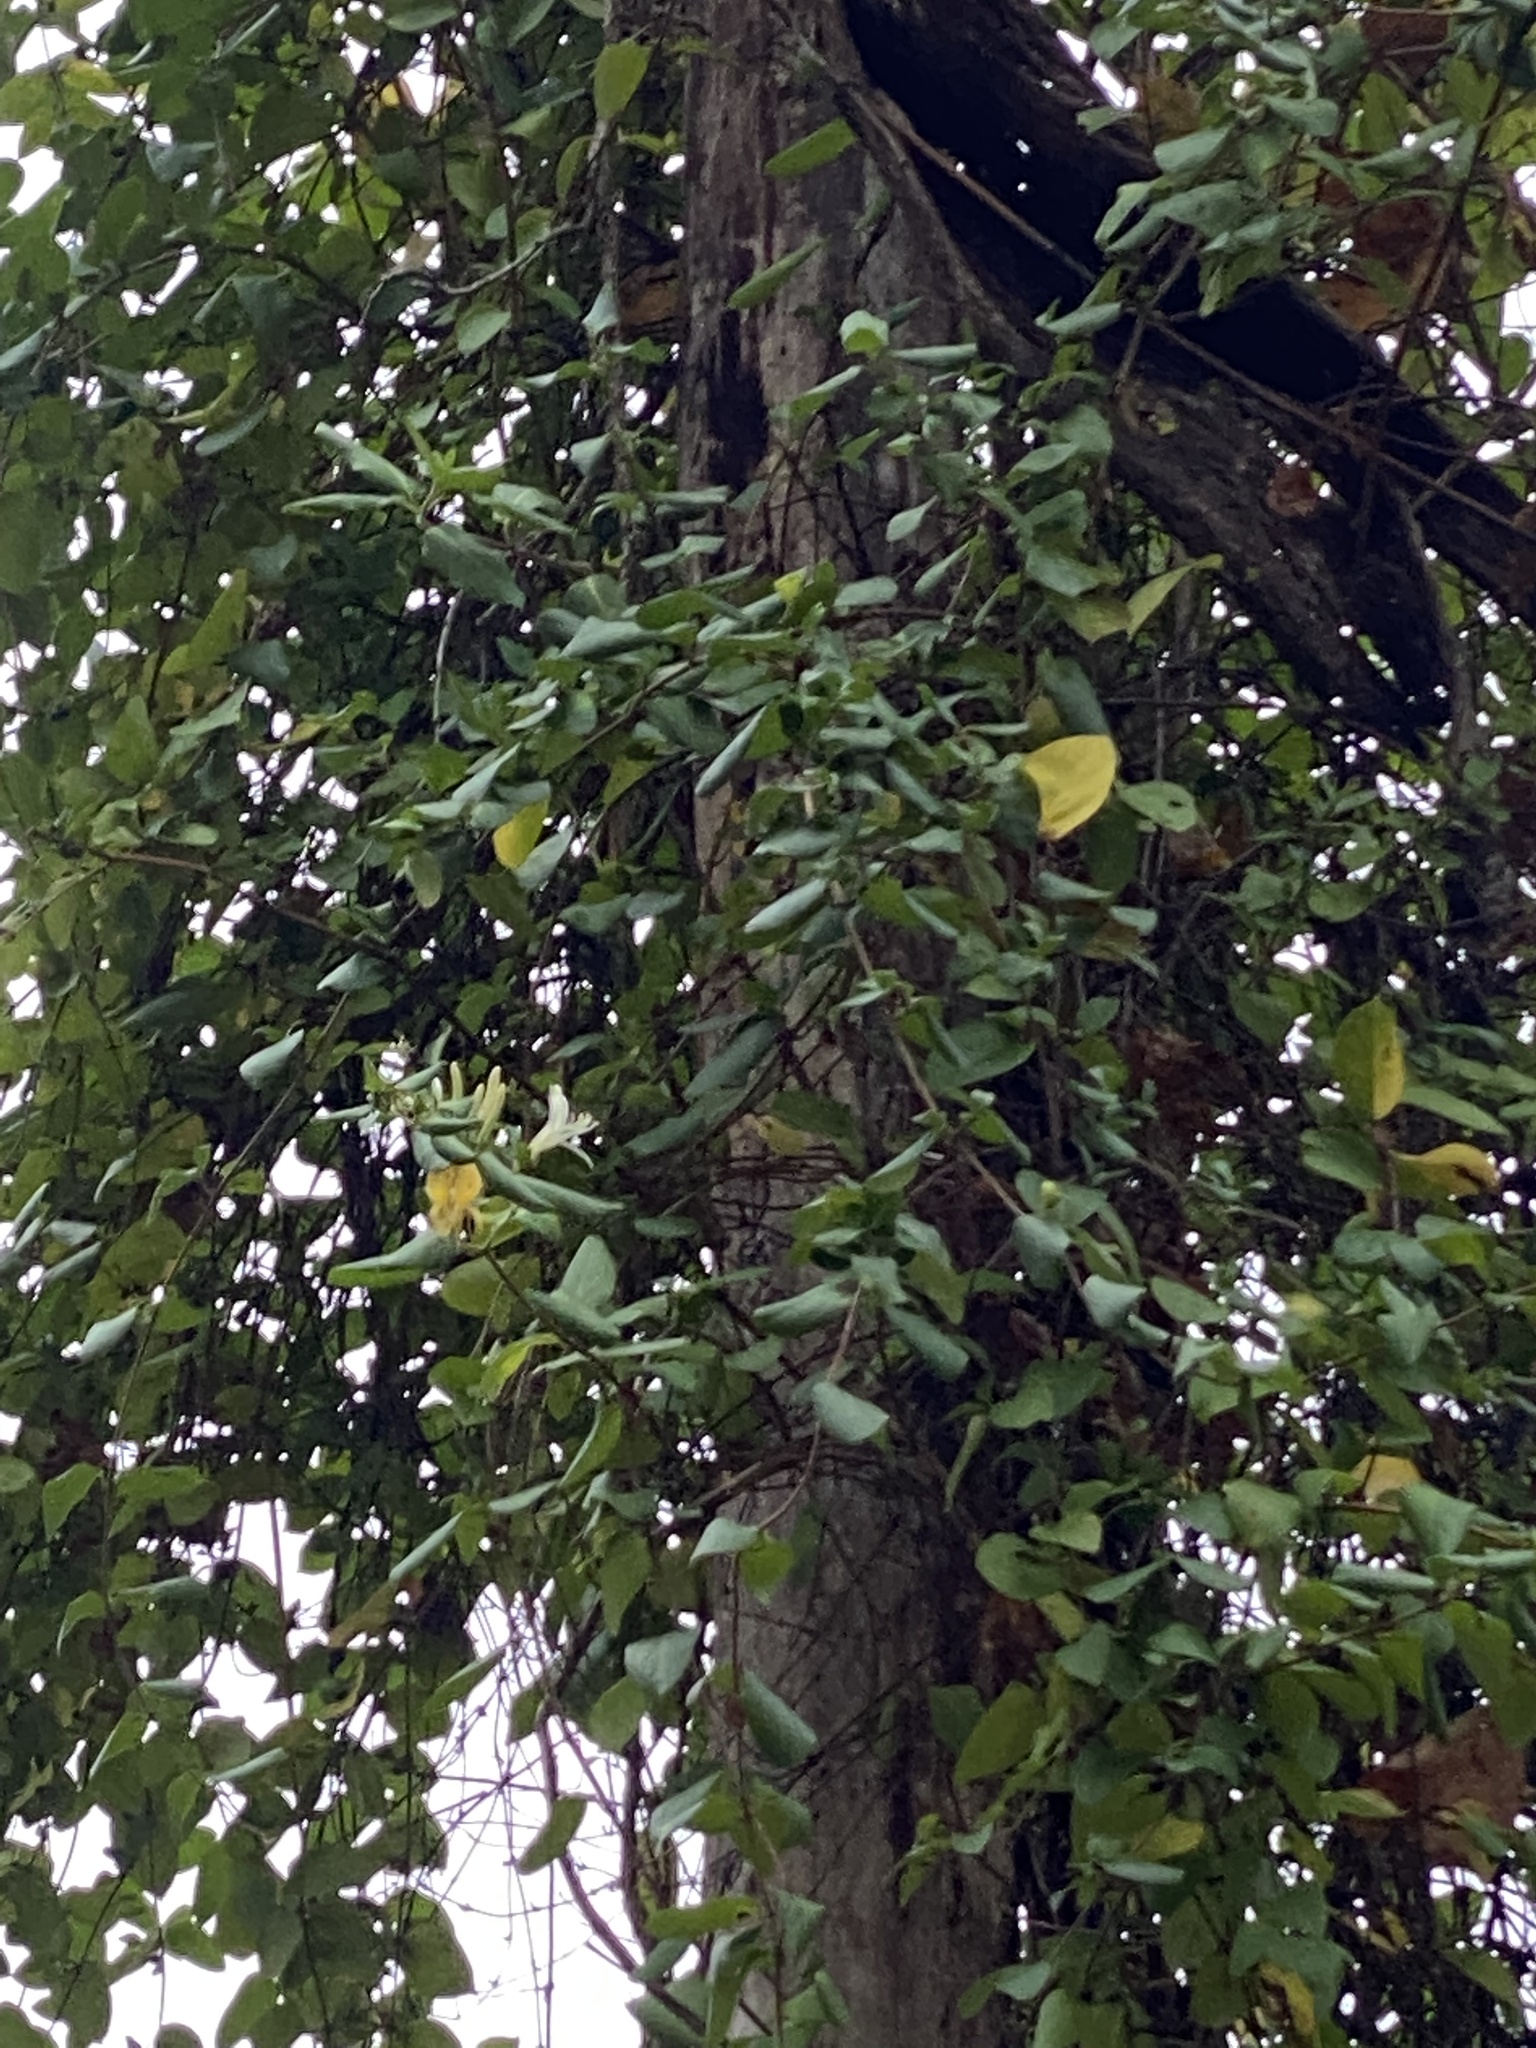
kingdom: Plantae
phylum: Tracheophyta
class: Magnoliopsida
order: Dipsacales
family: Caprifoliaceae
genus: Lonicera
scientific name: Lonicera japonica
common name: Japanese honeysuckle
